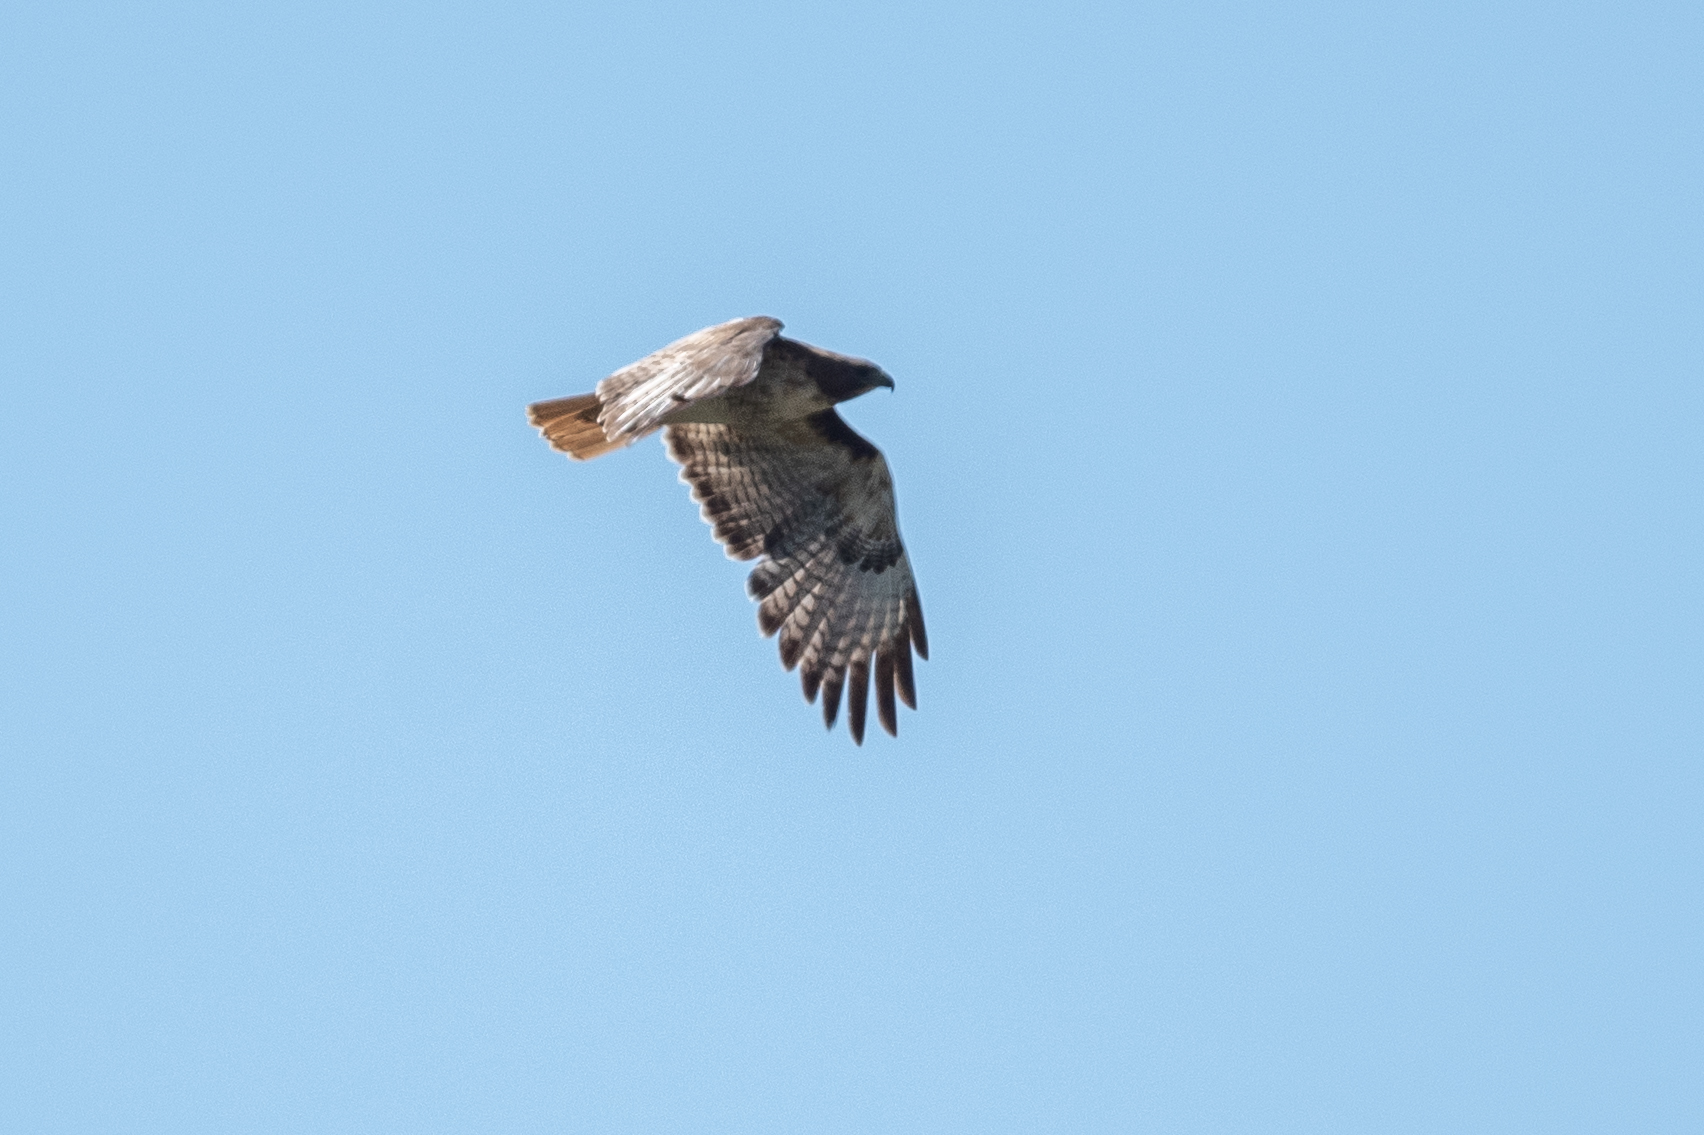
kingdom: Animalia
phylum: Chordata
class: Aves
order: Accipitriformes
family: Accipitridae
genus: Buteo
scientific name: Buteo jamaicensis
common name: Red-tailed hawk
